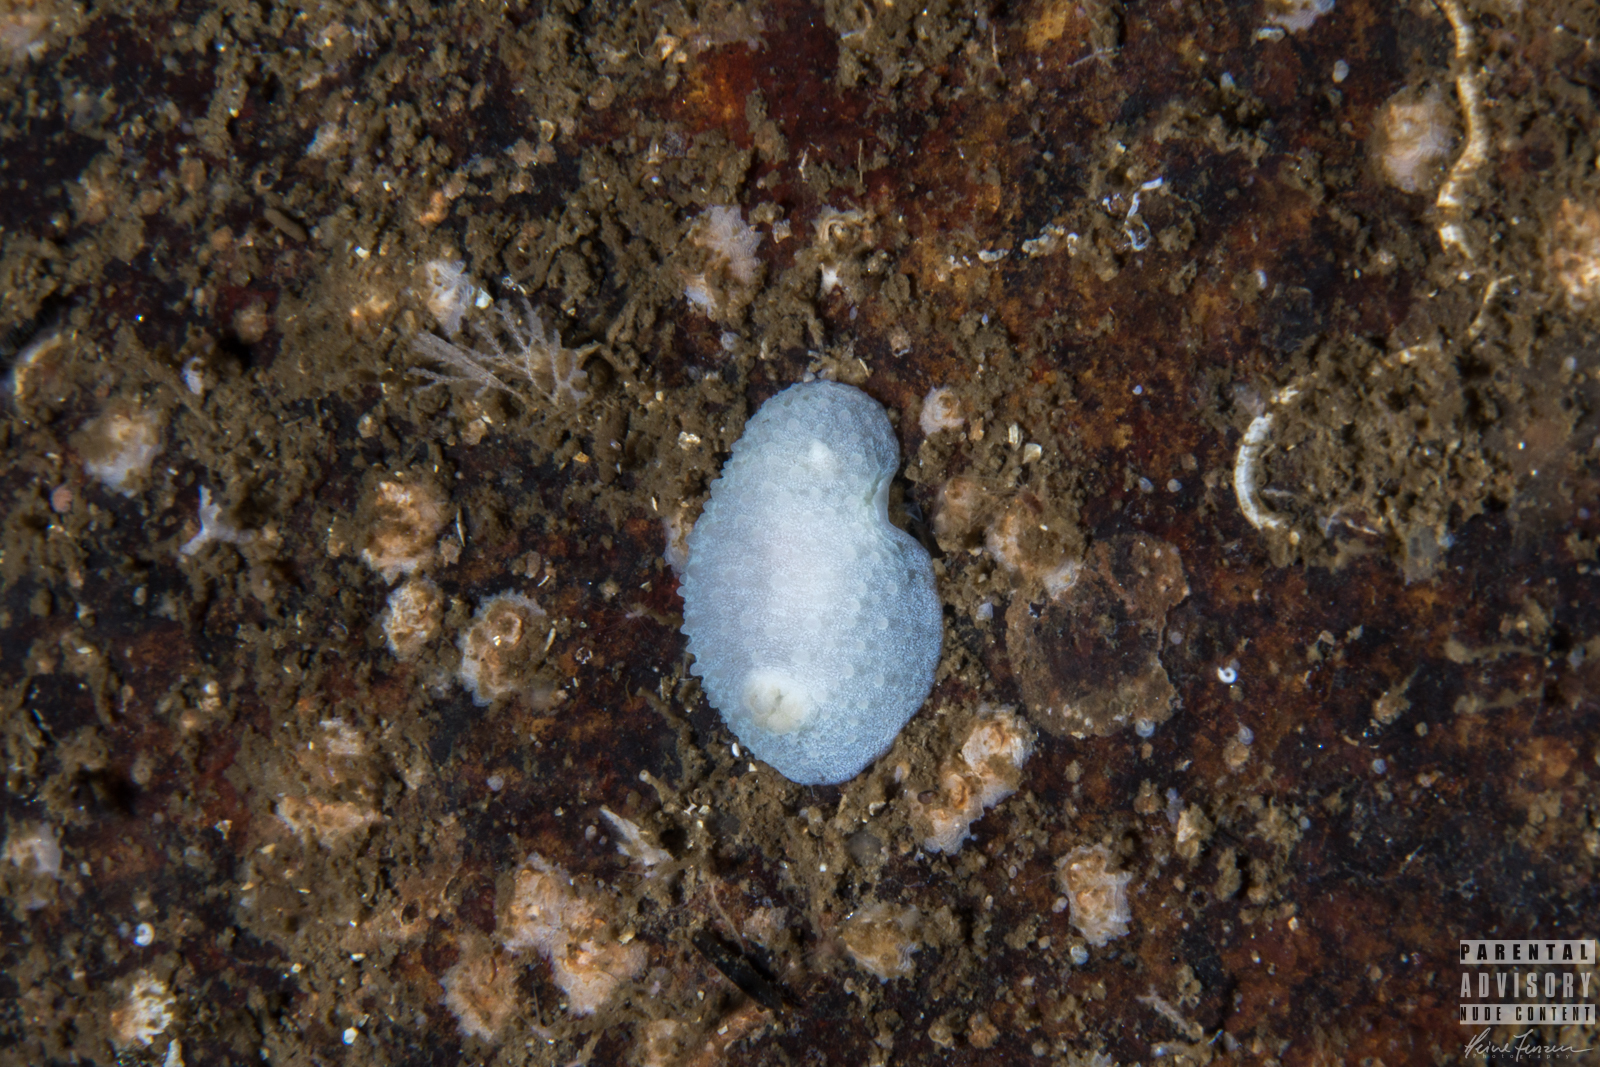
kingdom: Animalia
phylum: Mollusca
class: Gastropoda
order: Nudibranchia
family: Cadlinidae
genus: Aldisa
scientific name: Aldisa zetlandica
